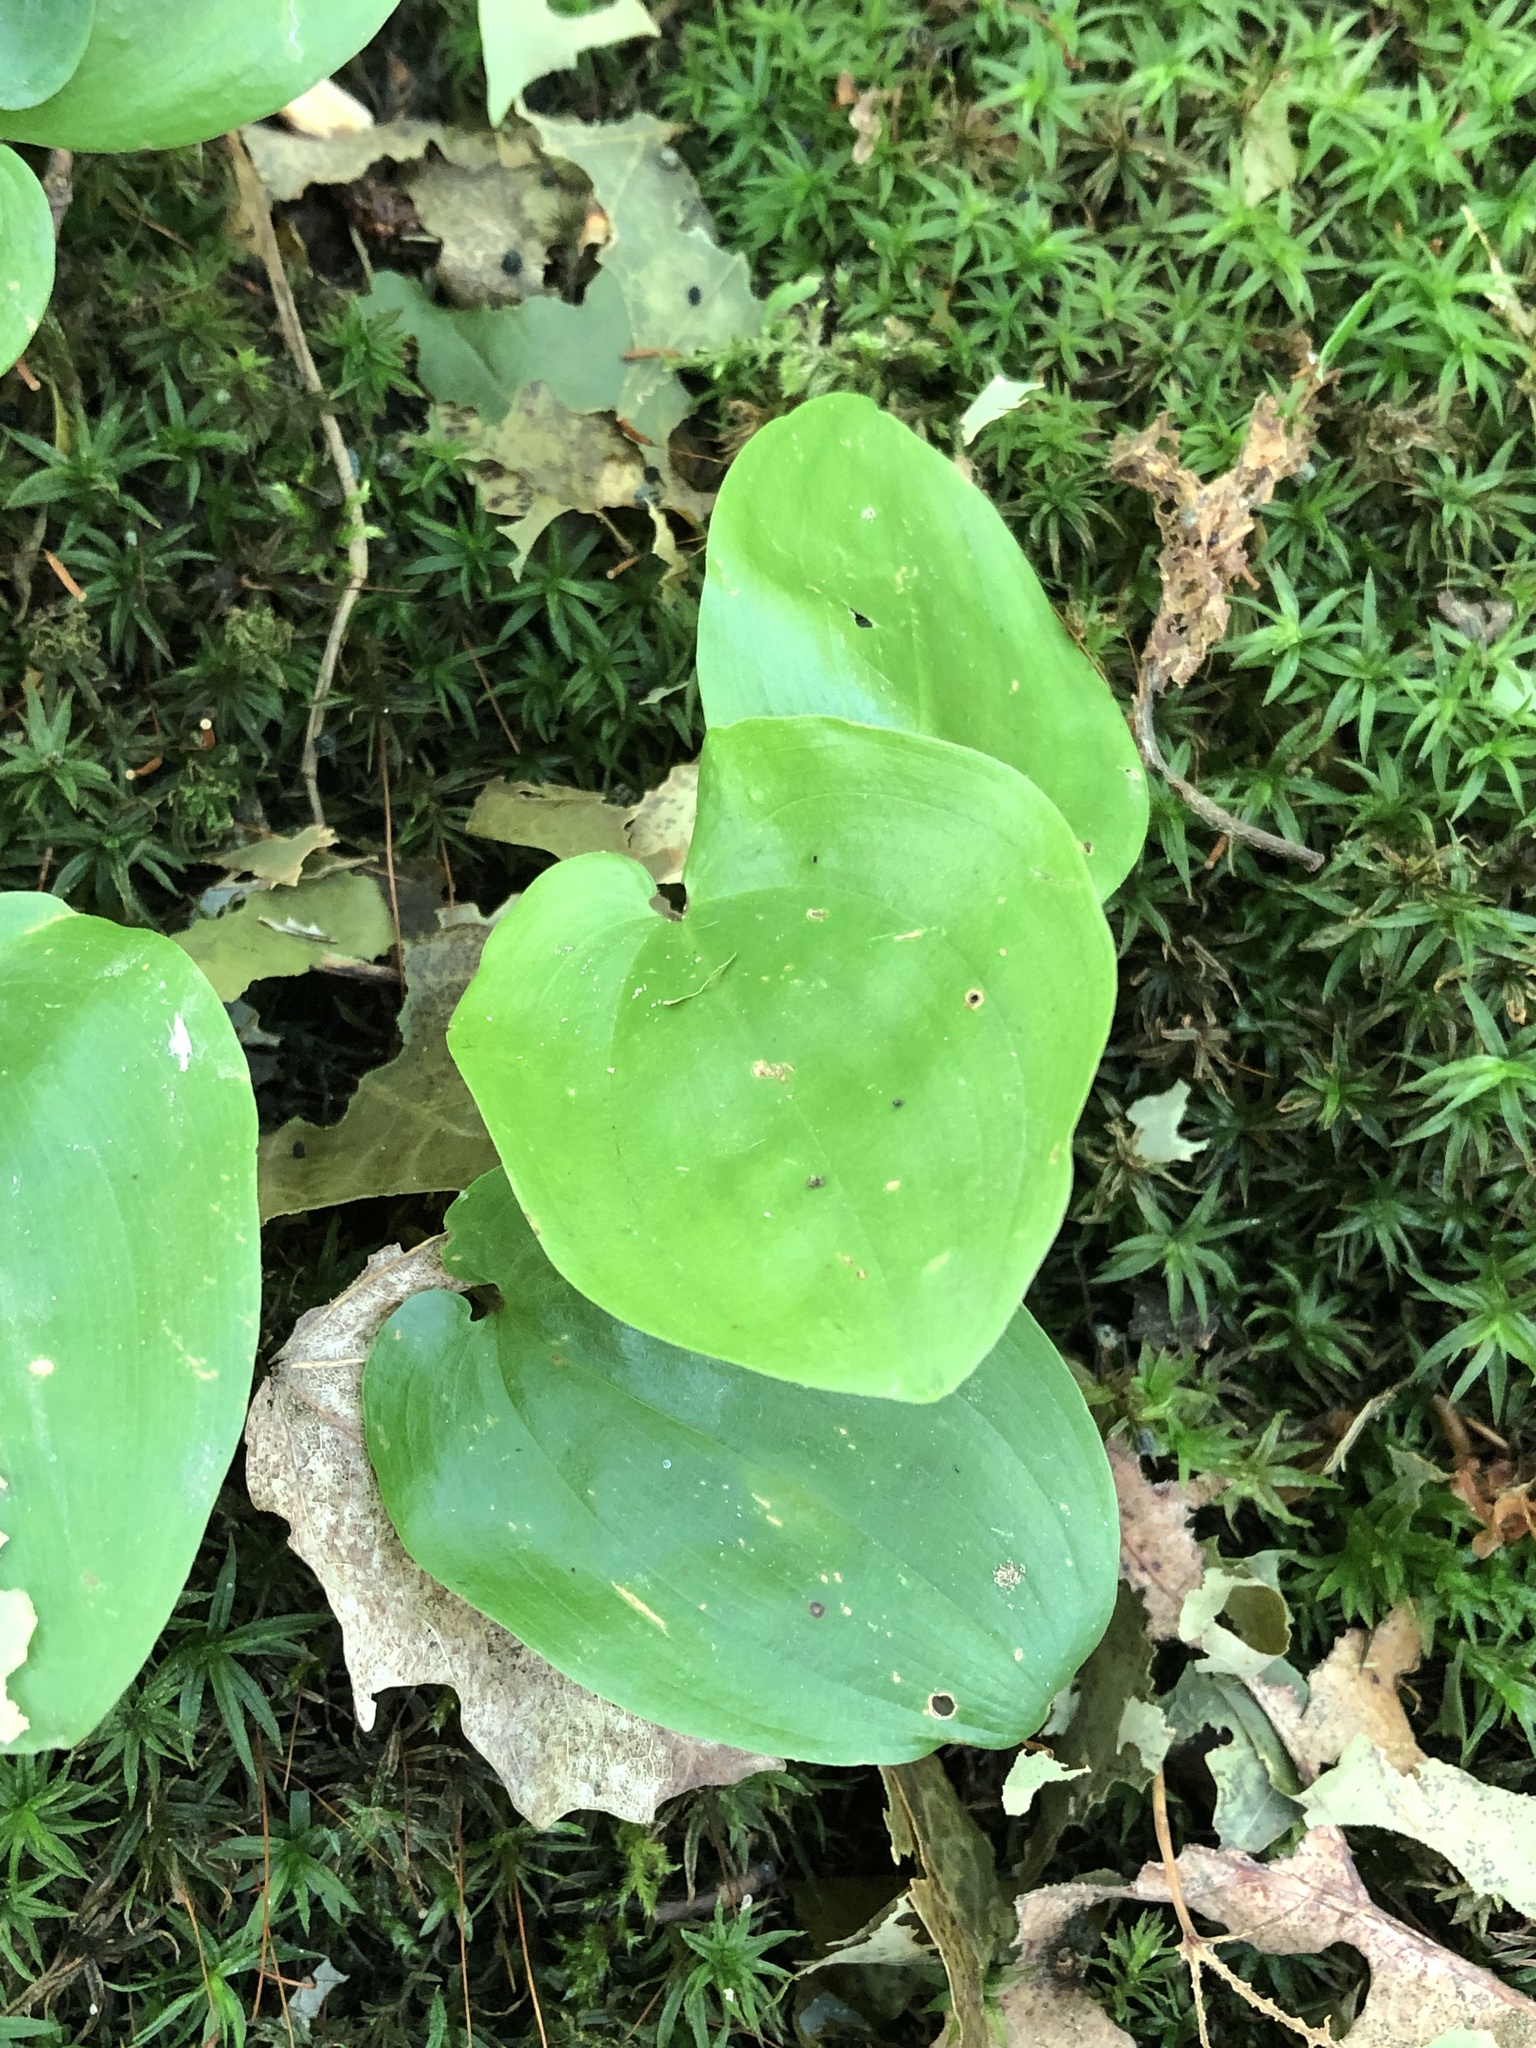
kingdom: Plantae
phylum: Tracheophyta
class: Liliopsida
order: Asparagales
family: Asparagaceae
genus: Maianthemum
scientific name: Maianthemum canadense
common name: False lily-of-the-valley
